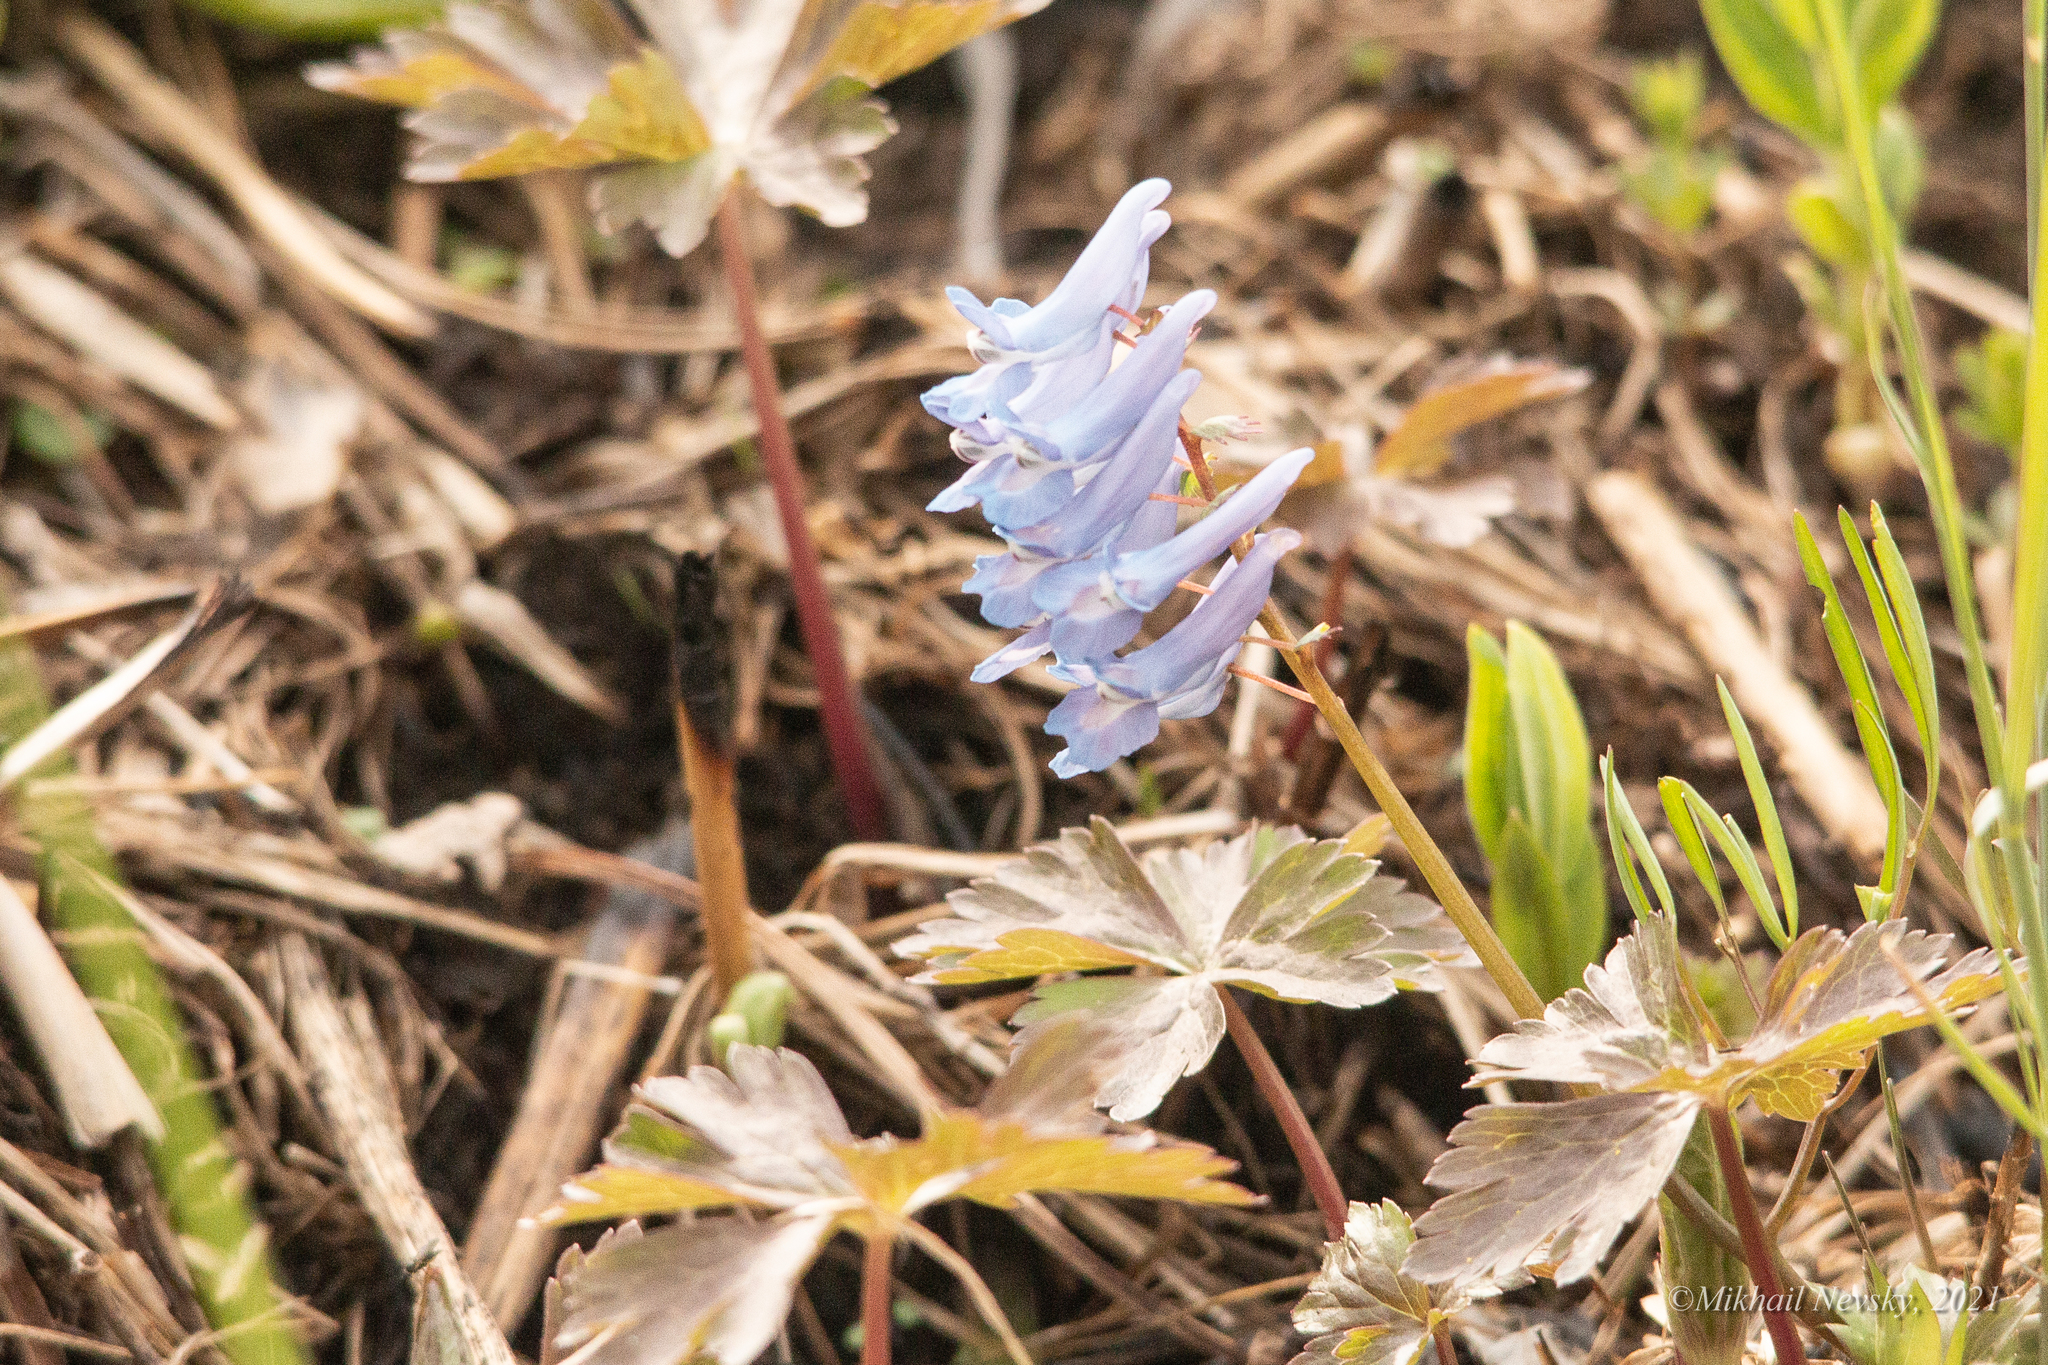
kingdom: Plantae
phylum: Tracheophyta
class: Magnoliopsida
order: Ranunculales
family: Papaveraceae
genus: Corydalis
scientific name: Corydalis ambigua
